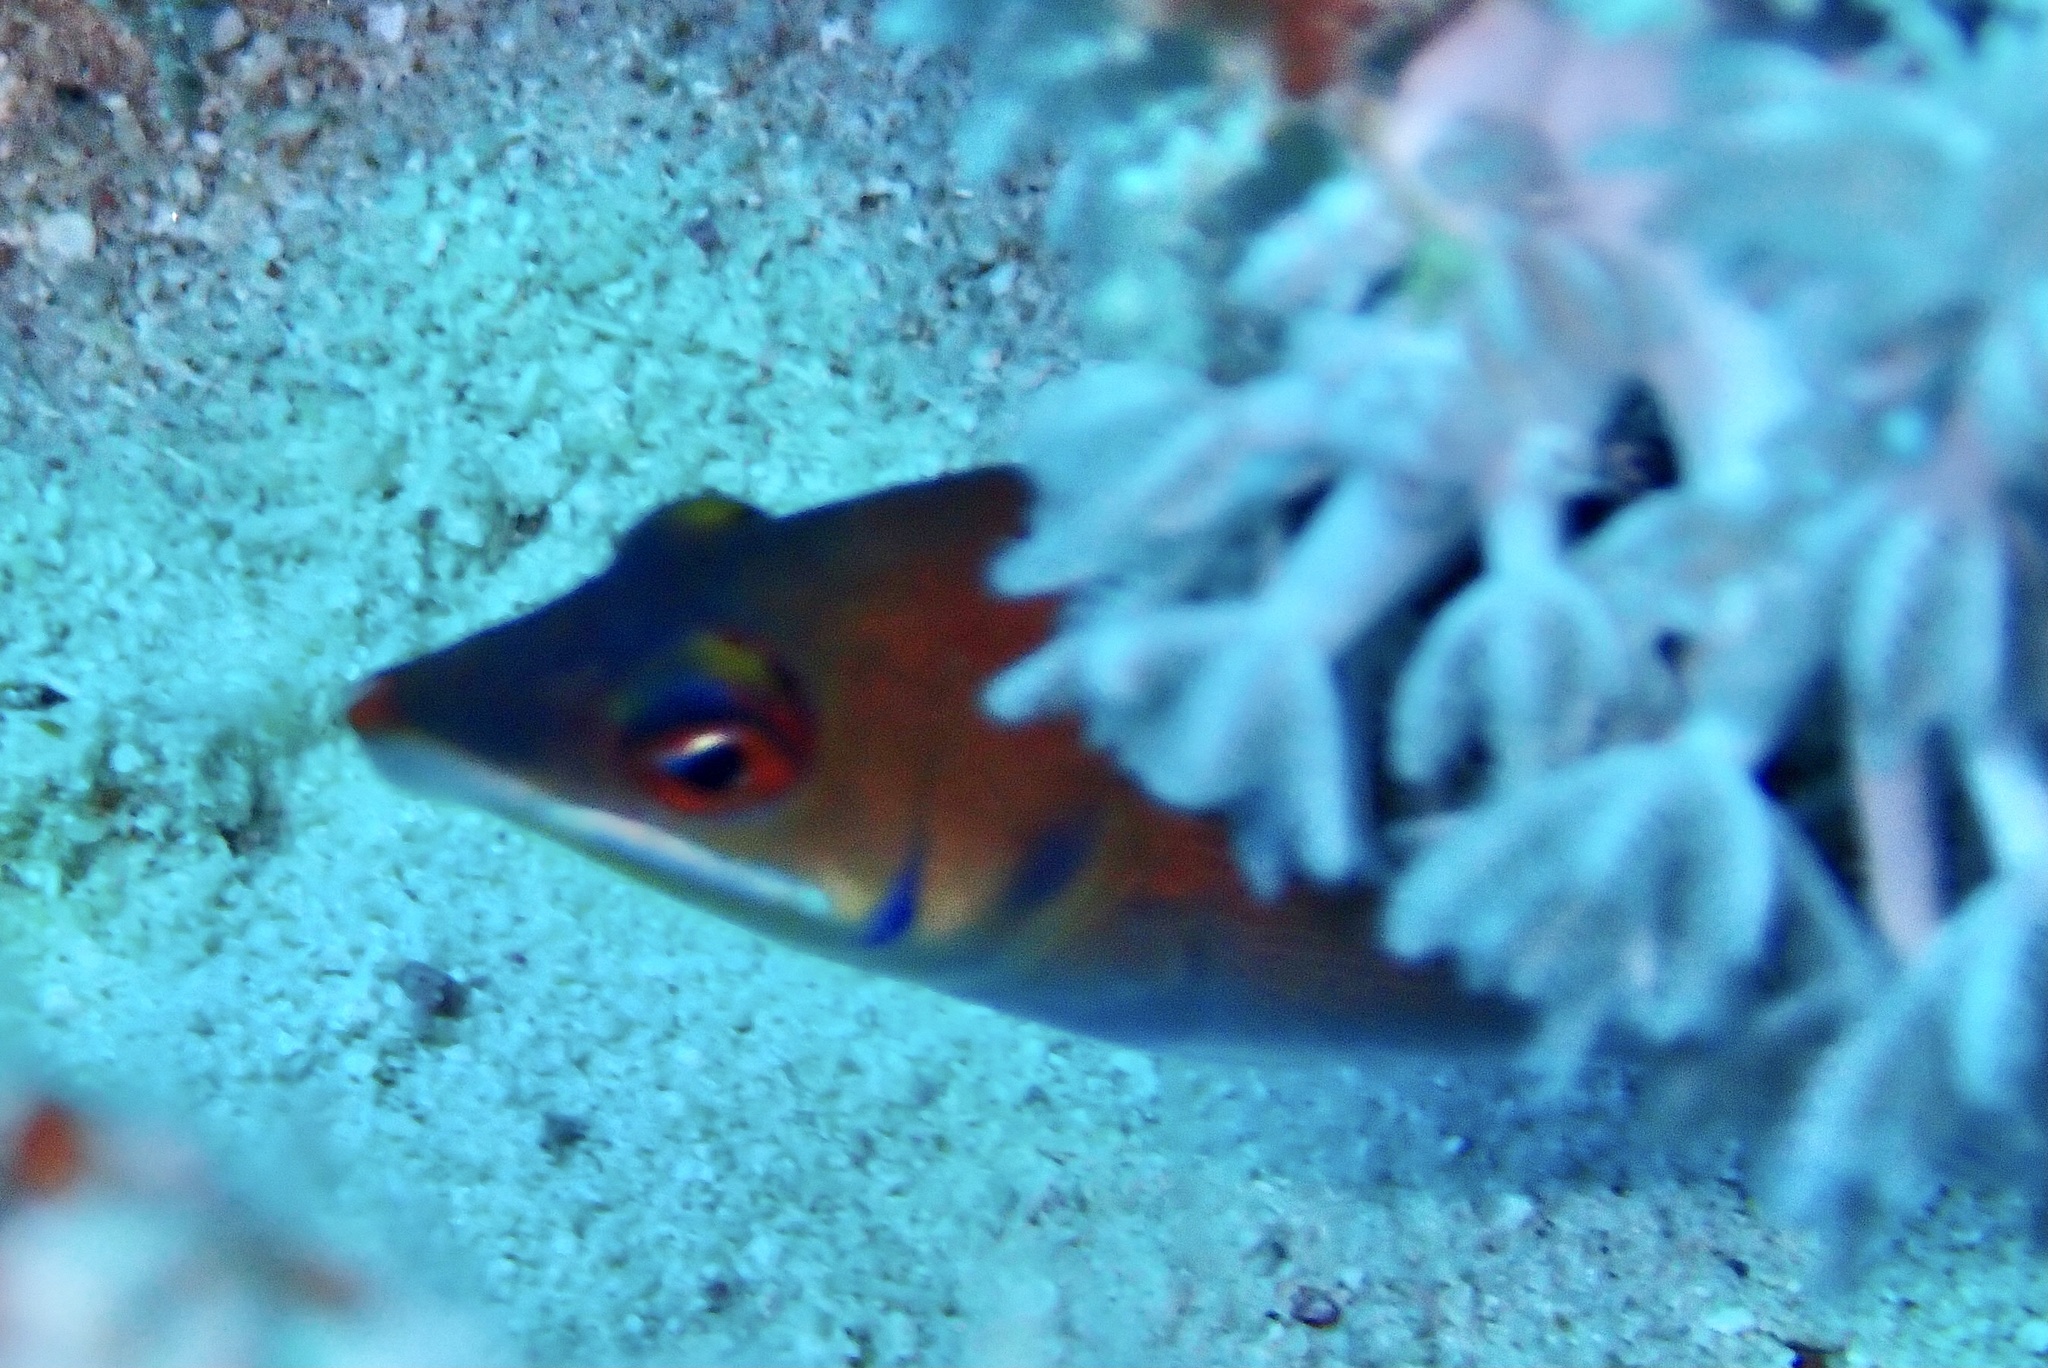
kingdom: Animalia
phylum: Chordata
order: Perciformes
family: Labridae
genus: Pseudocheilinus
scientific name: Pseudocheilinus evanidus
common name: Disappearing wrasse
